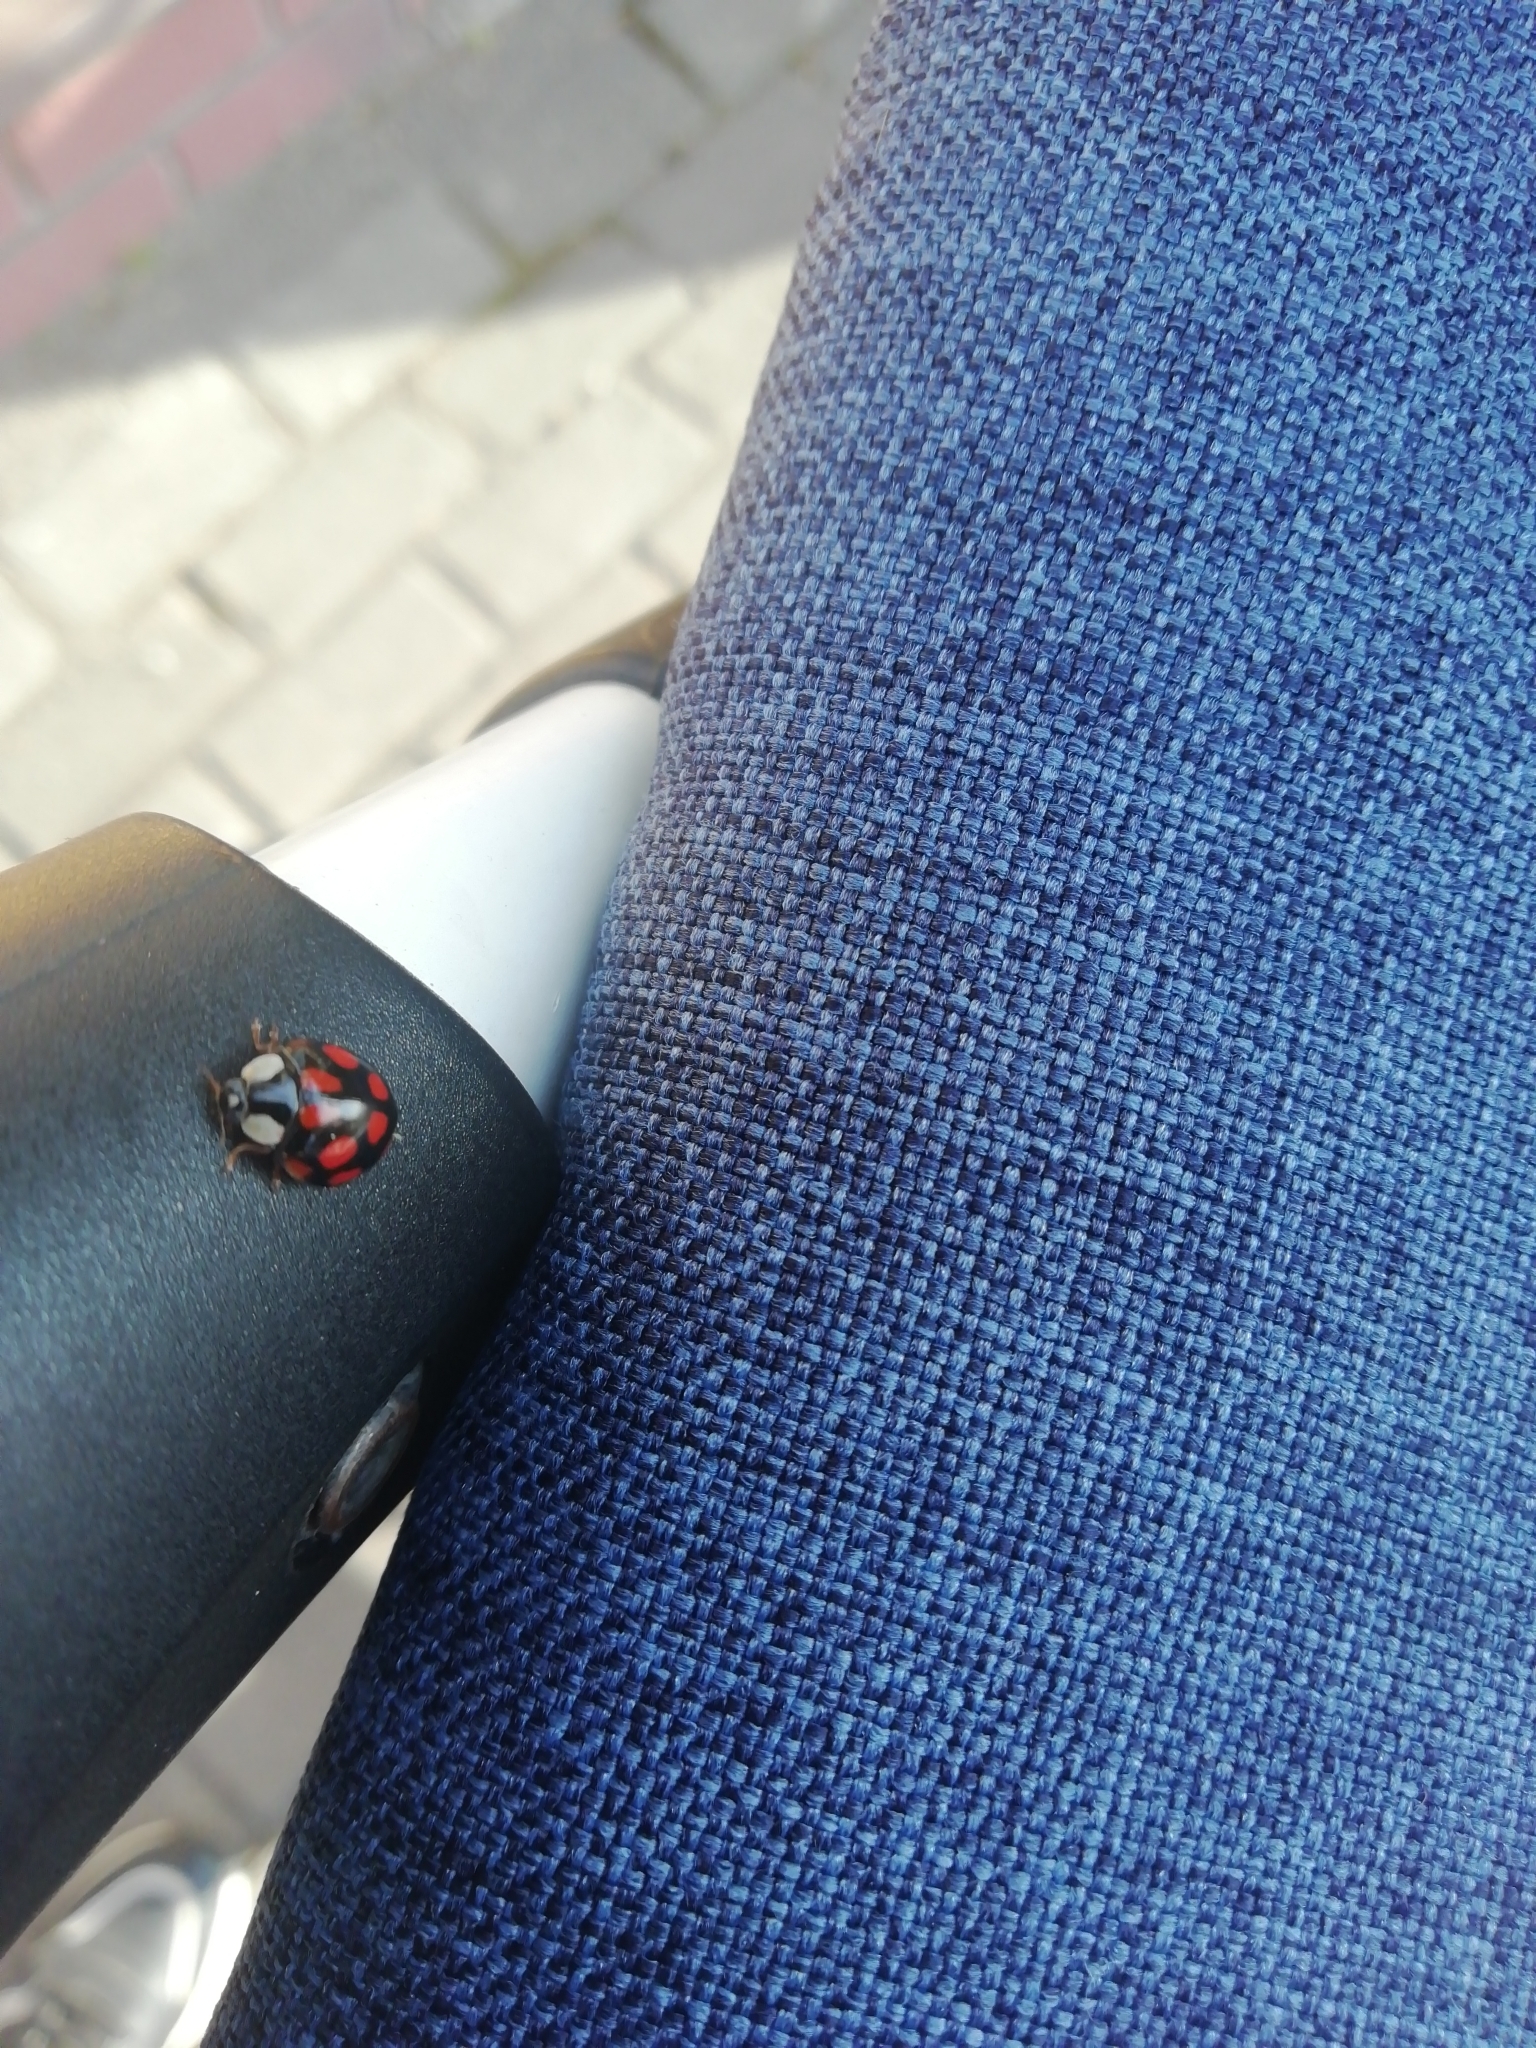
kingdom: Animalia
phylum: Arthropoda
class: Insecta
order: Coleoptera
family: Coccinellidae
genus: Harmonia
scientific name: Harmonia axyridis
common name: Harlequin ladybird
